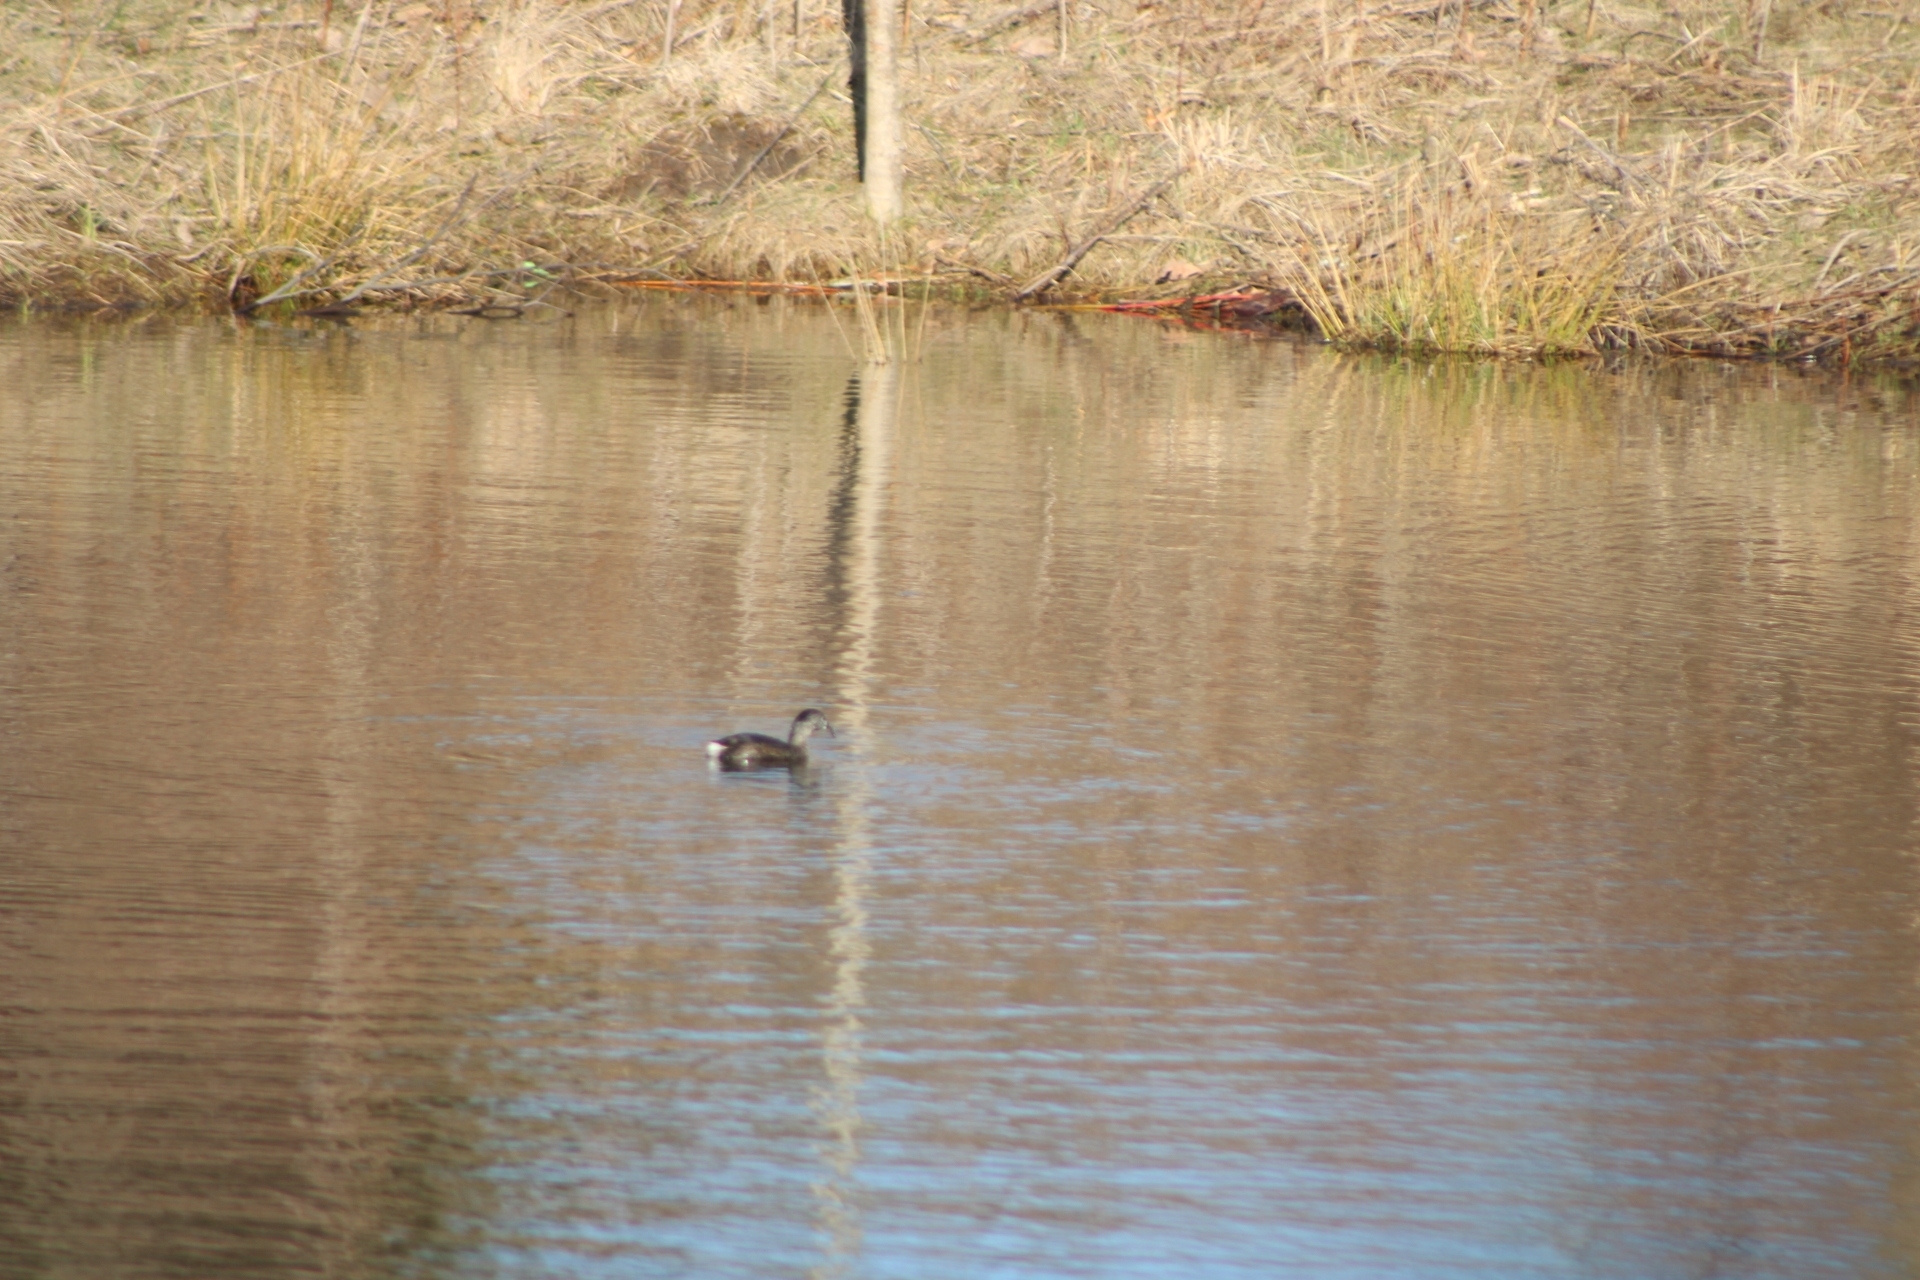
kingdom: Animalia
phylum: Chordata
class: Aves
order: Podicipediformes
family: Podicipedidae
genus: Podilymbus
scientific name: Podilymbus podiceps
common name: Pied-billed grebe
